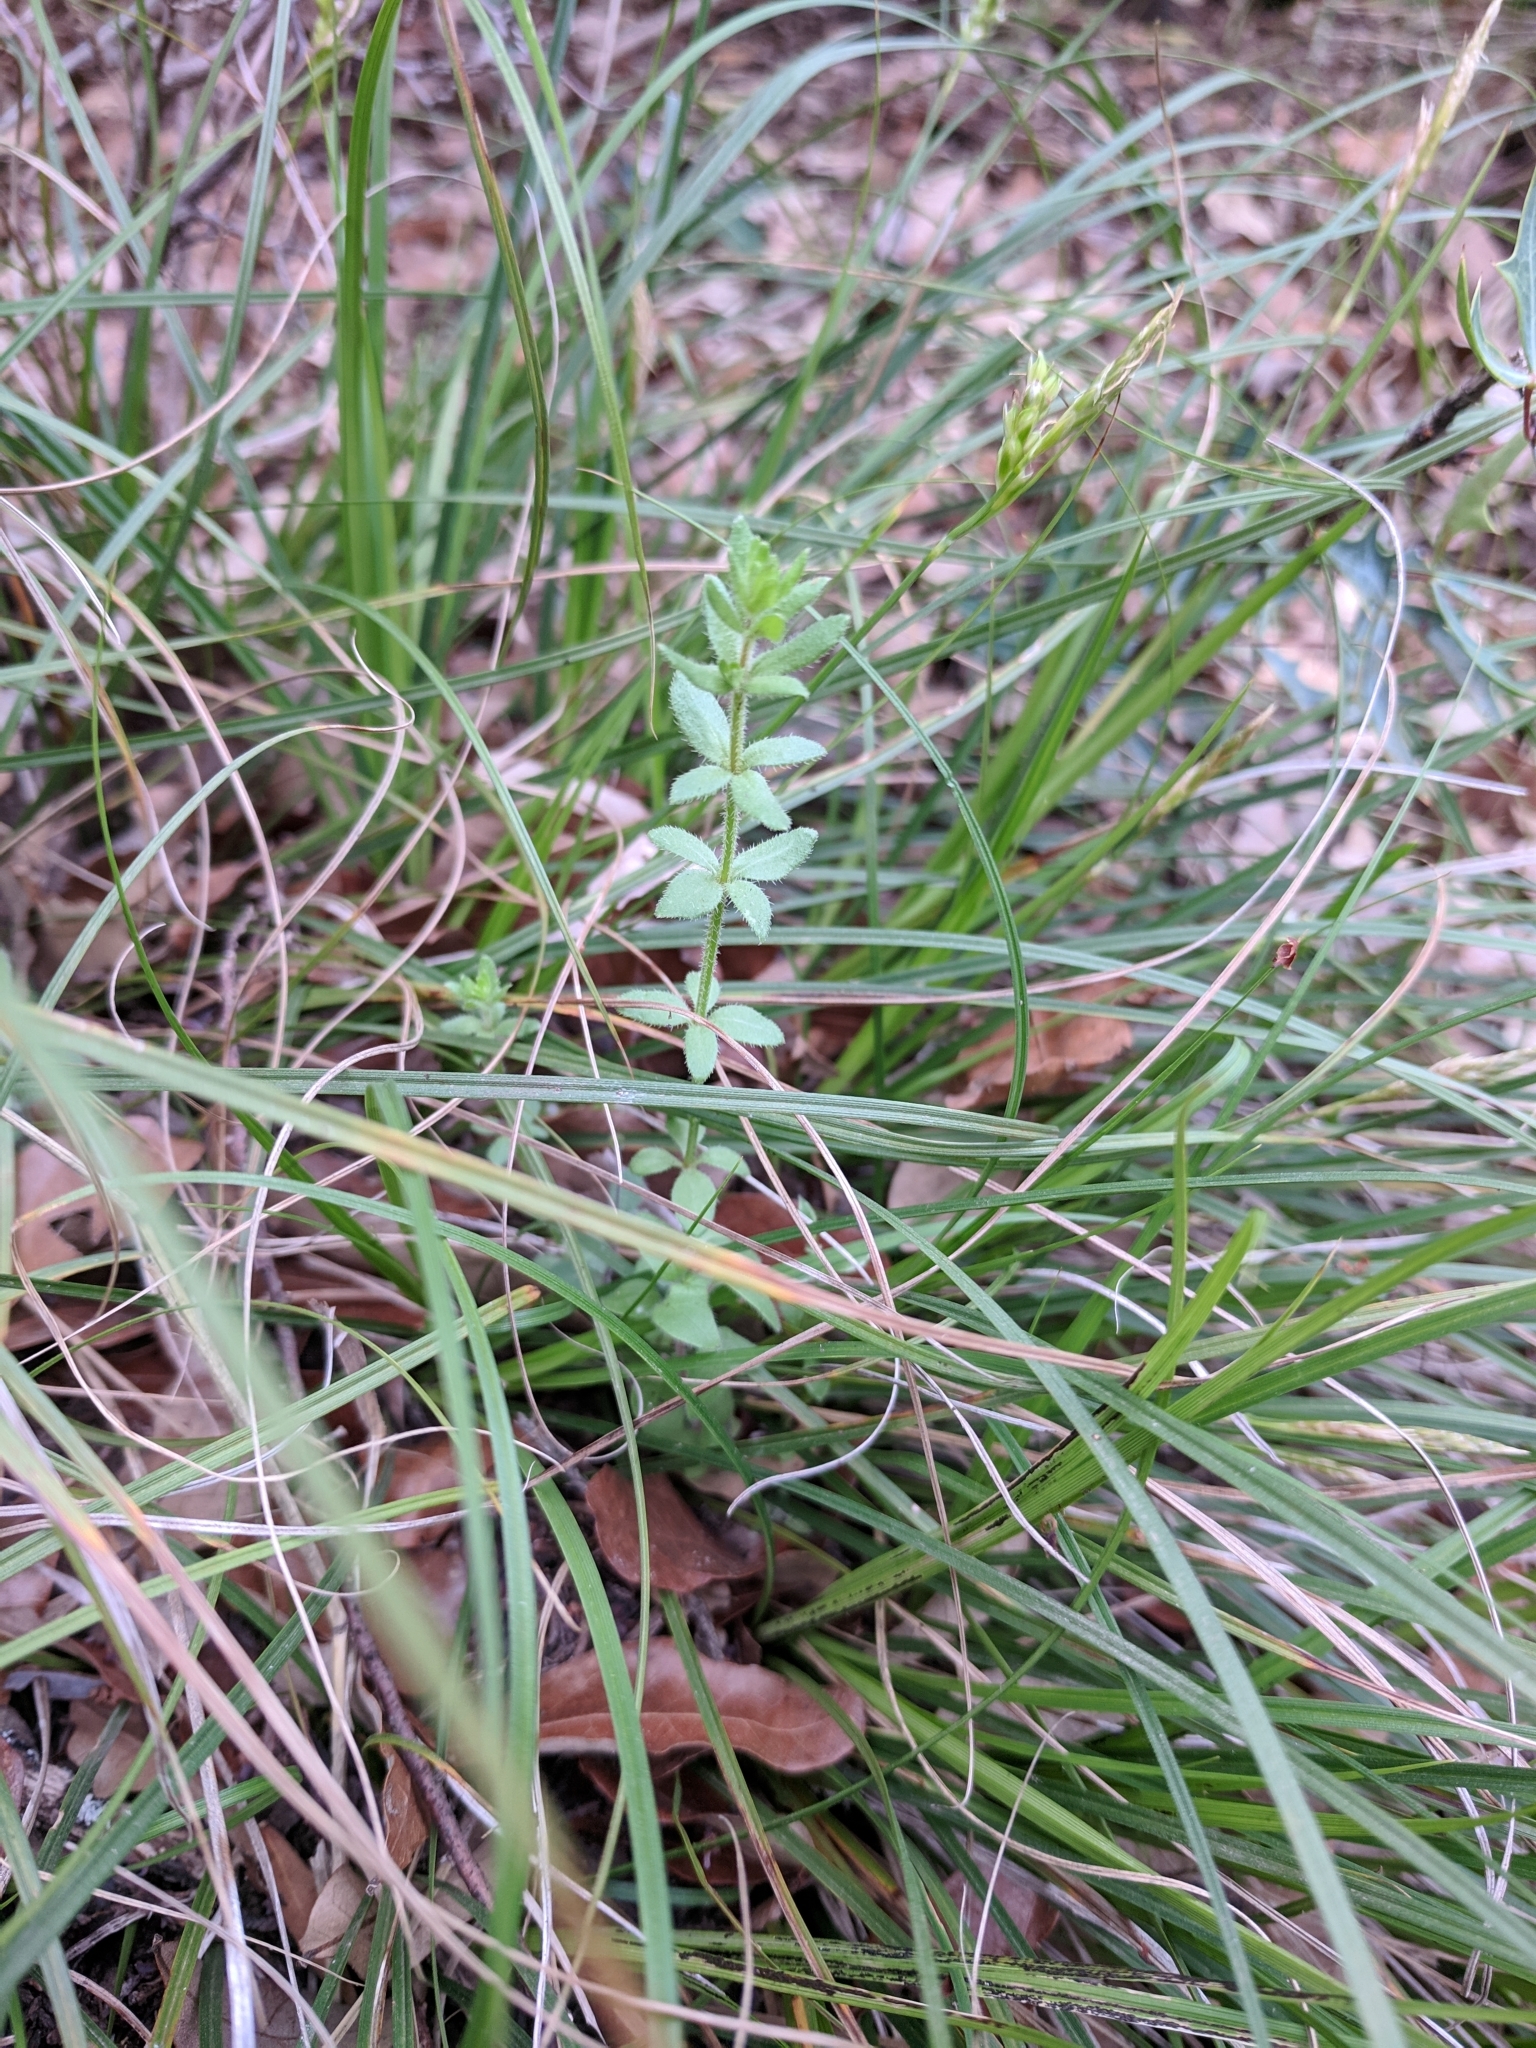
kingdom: Plantae
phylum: Tracheophyta
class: Magnoliopsida
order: Gentianales
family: Rubiaceae
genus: Galium
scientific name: Galium texense
